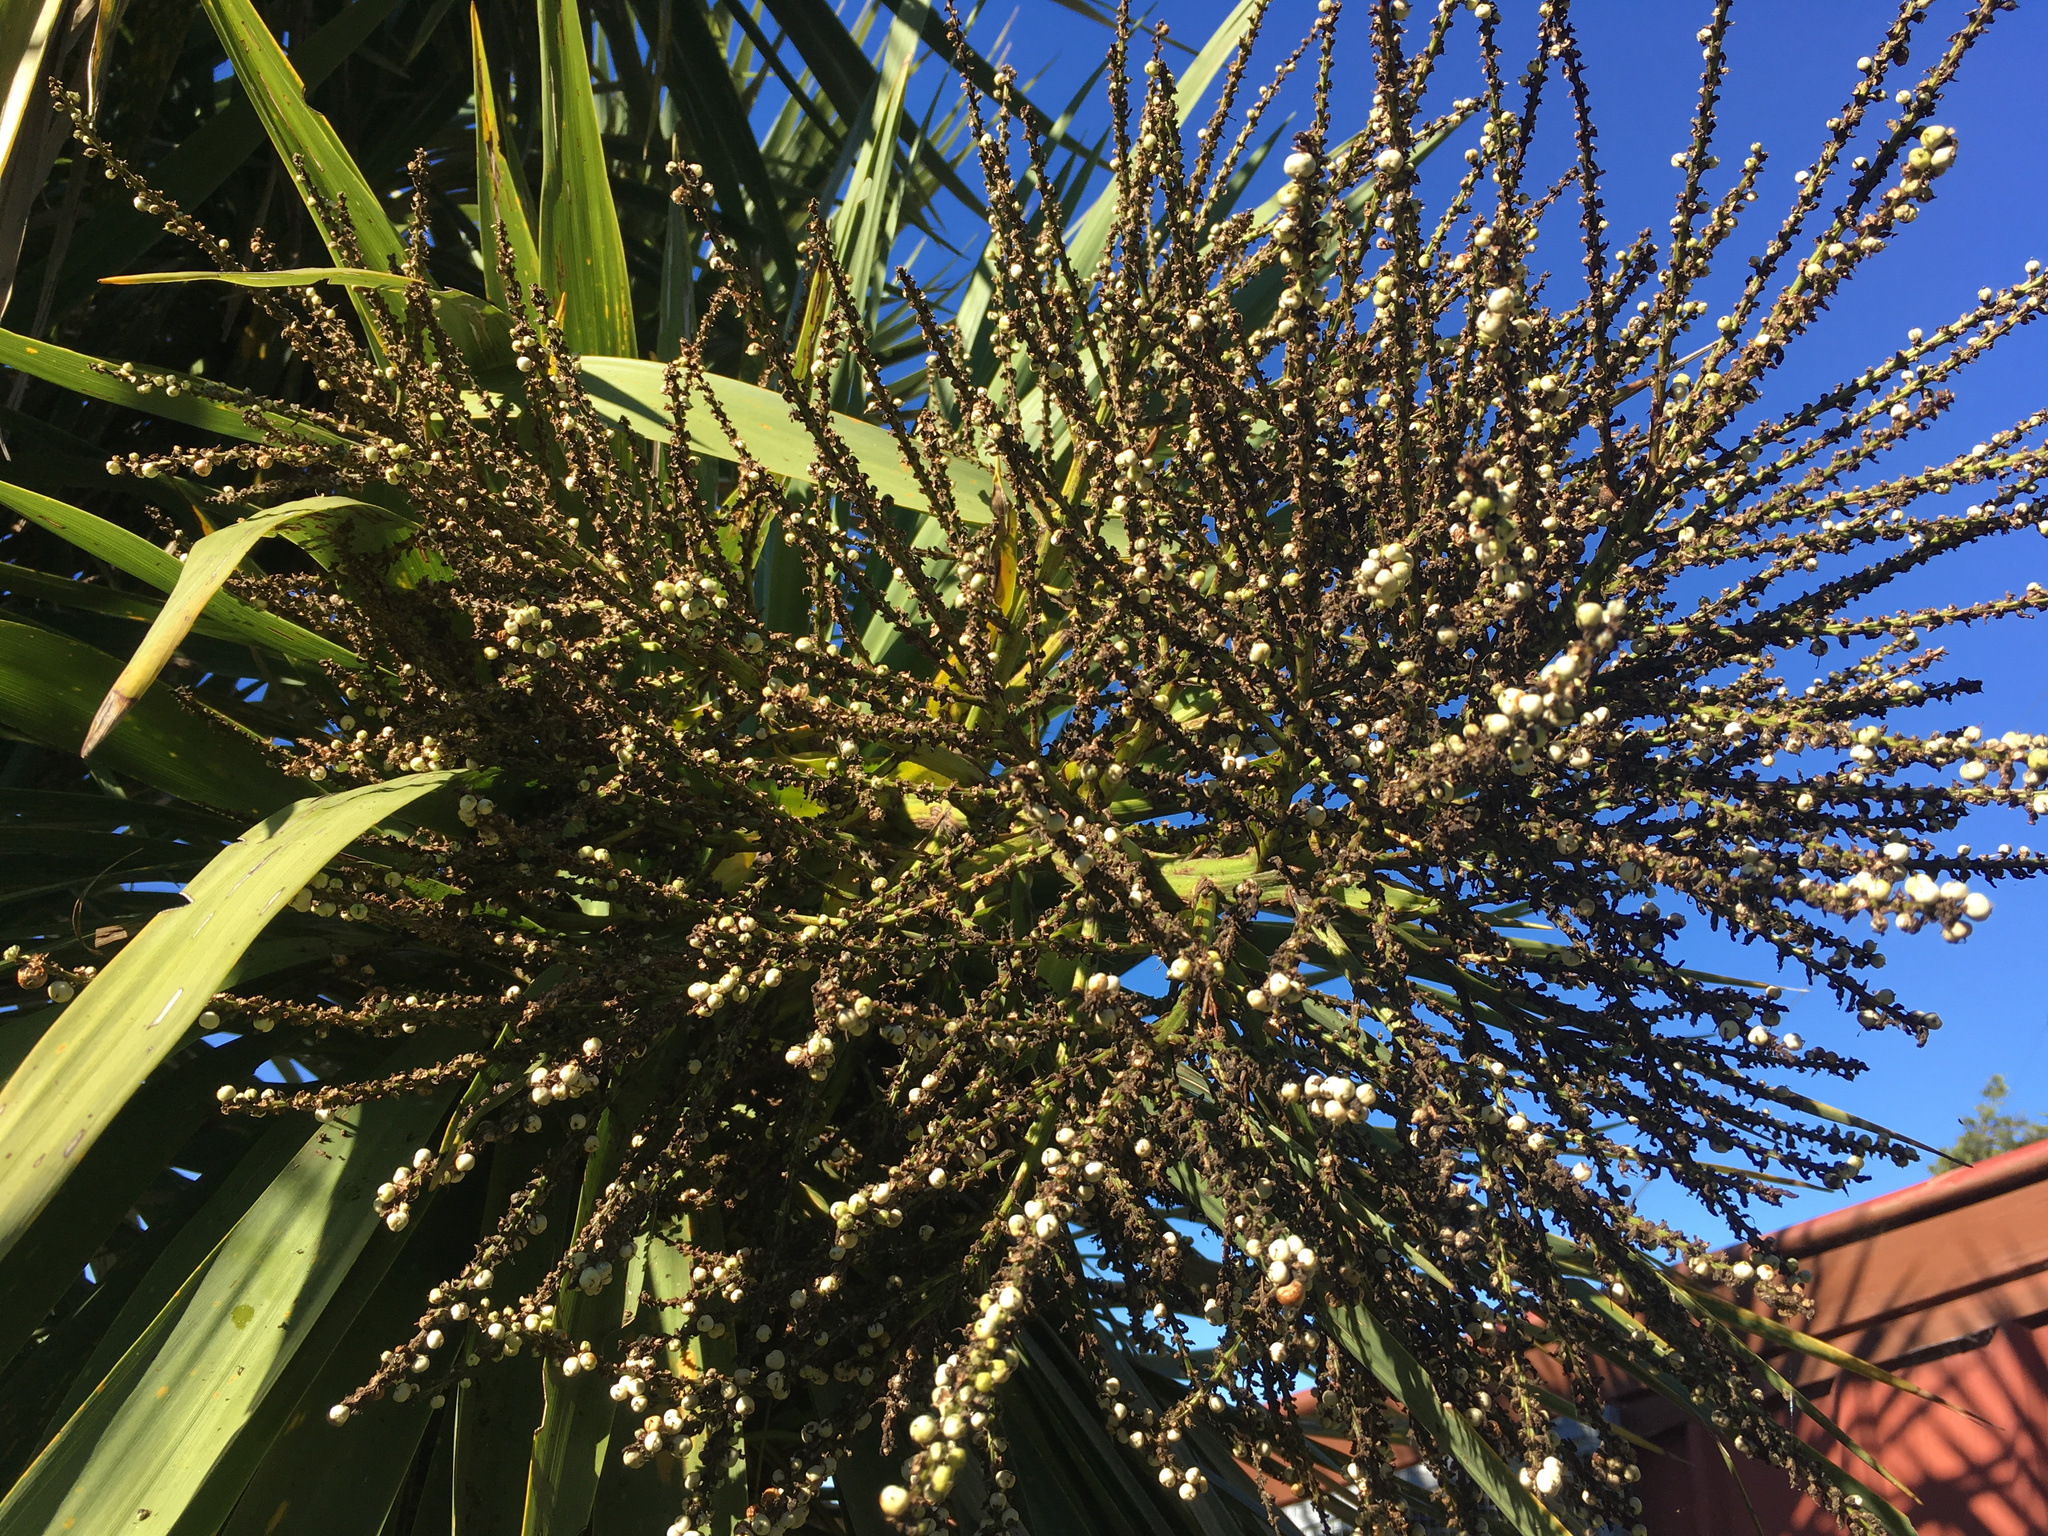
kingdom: Plantae
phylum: Tracheophyta
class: Liliopsida
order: Asparagales
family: Asparagaceae
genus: Cordyline
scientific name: Cordyline australis
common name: Cabbage-palm
